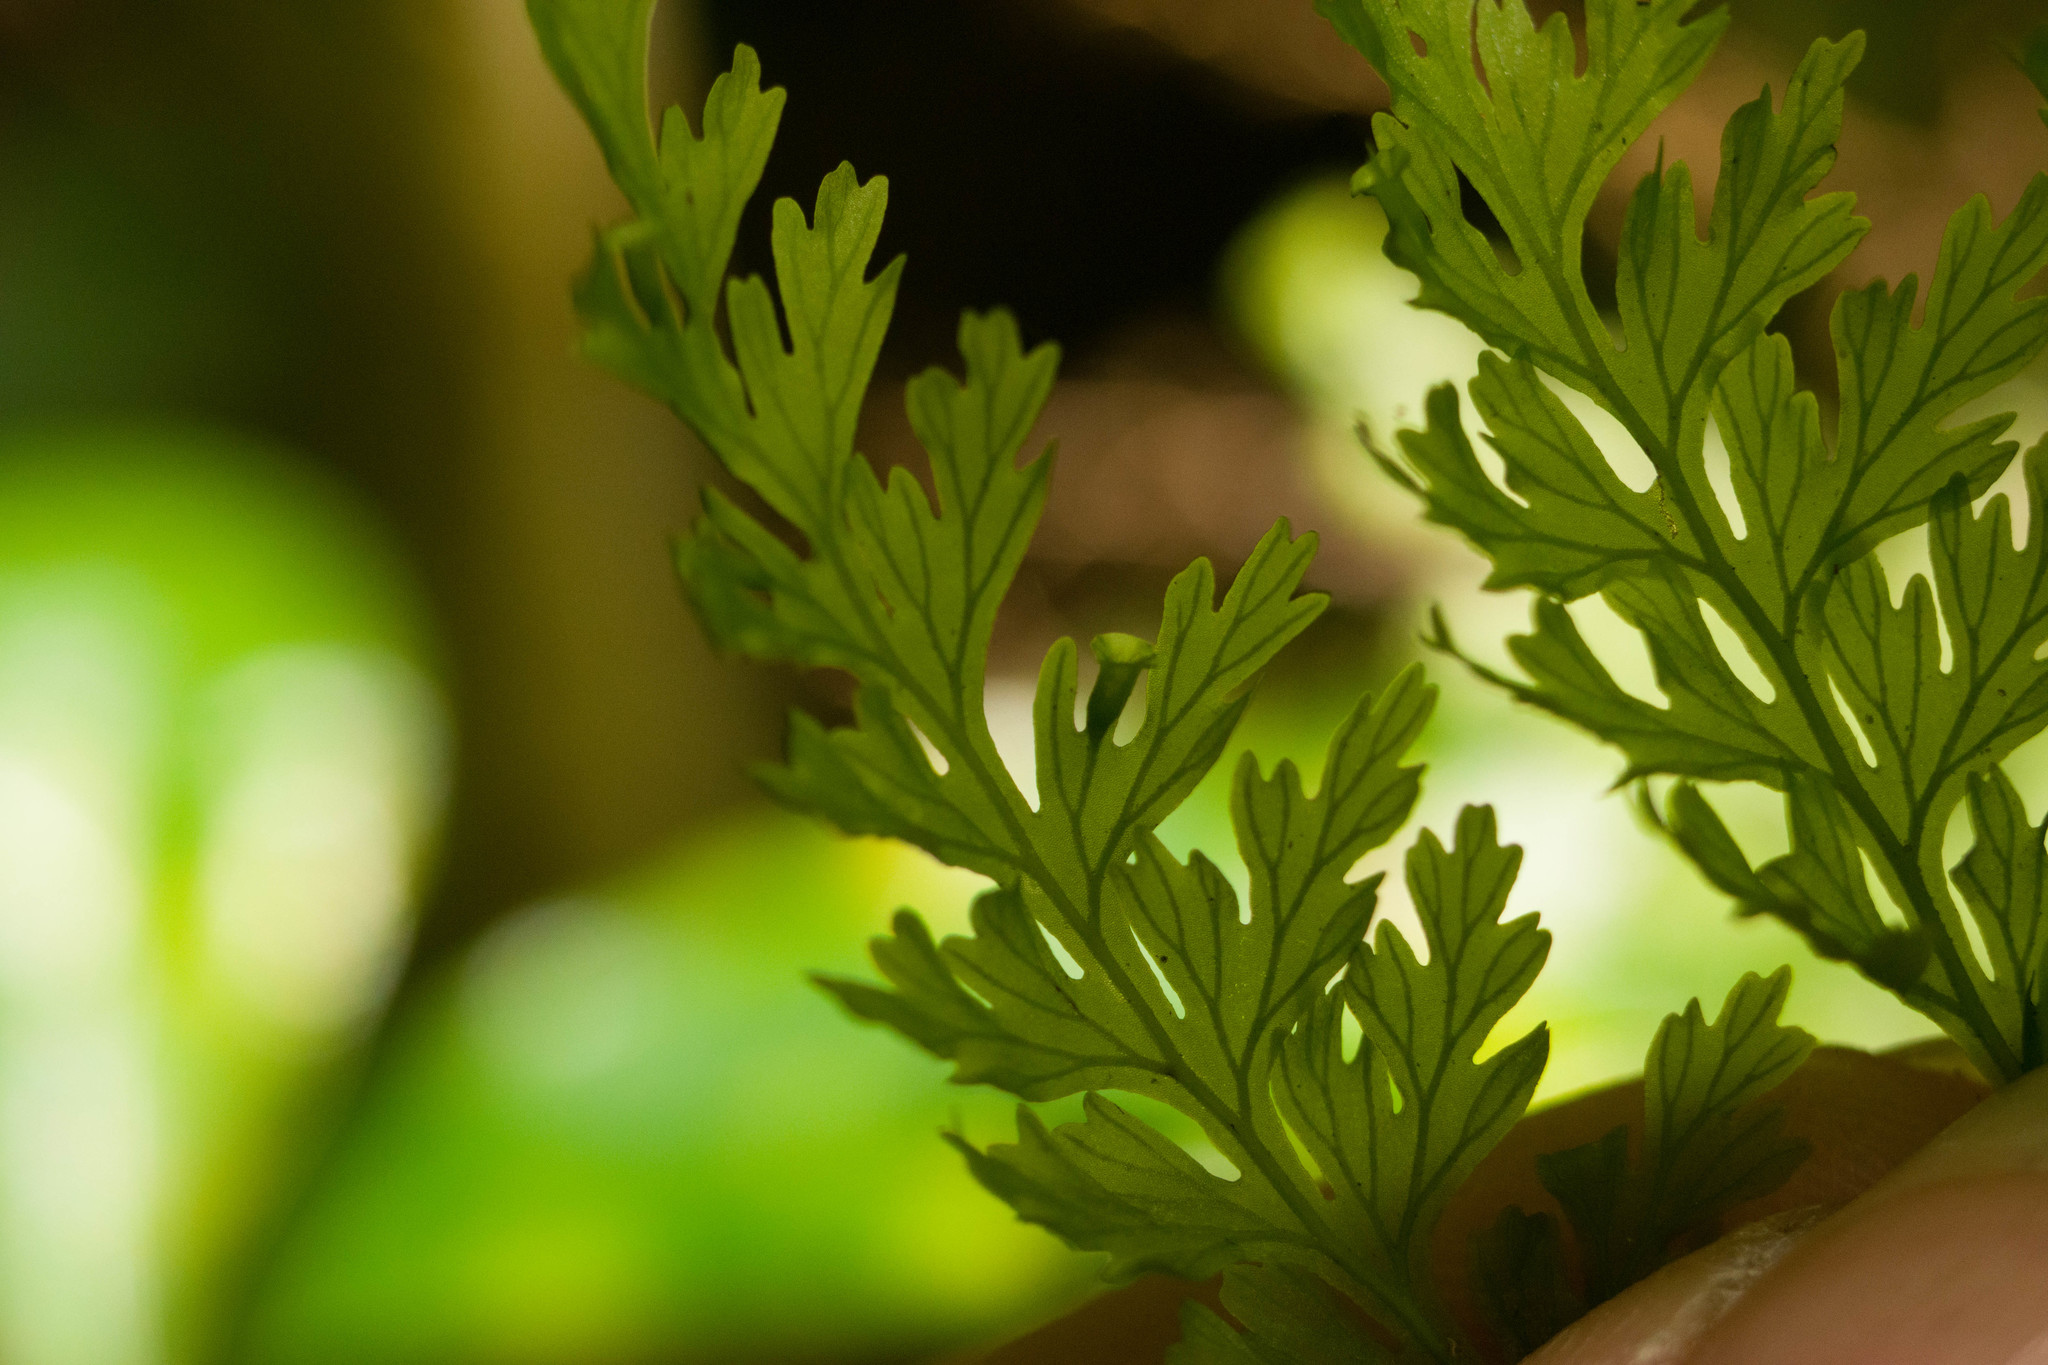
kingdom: Plantae
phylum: Tracheophyta
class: Polypodiopsida
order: Hymenophyllales
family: Hymenophyllaceae
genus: Vandenboschia
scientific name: Vandenboschia davallioides
